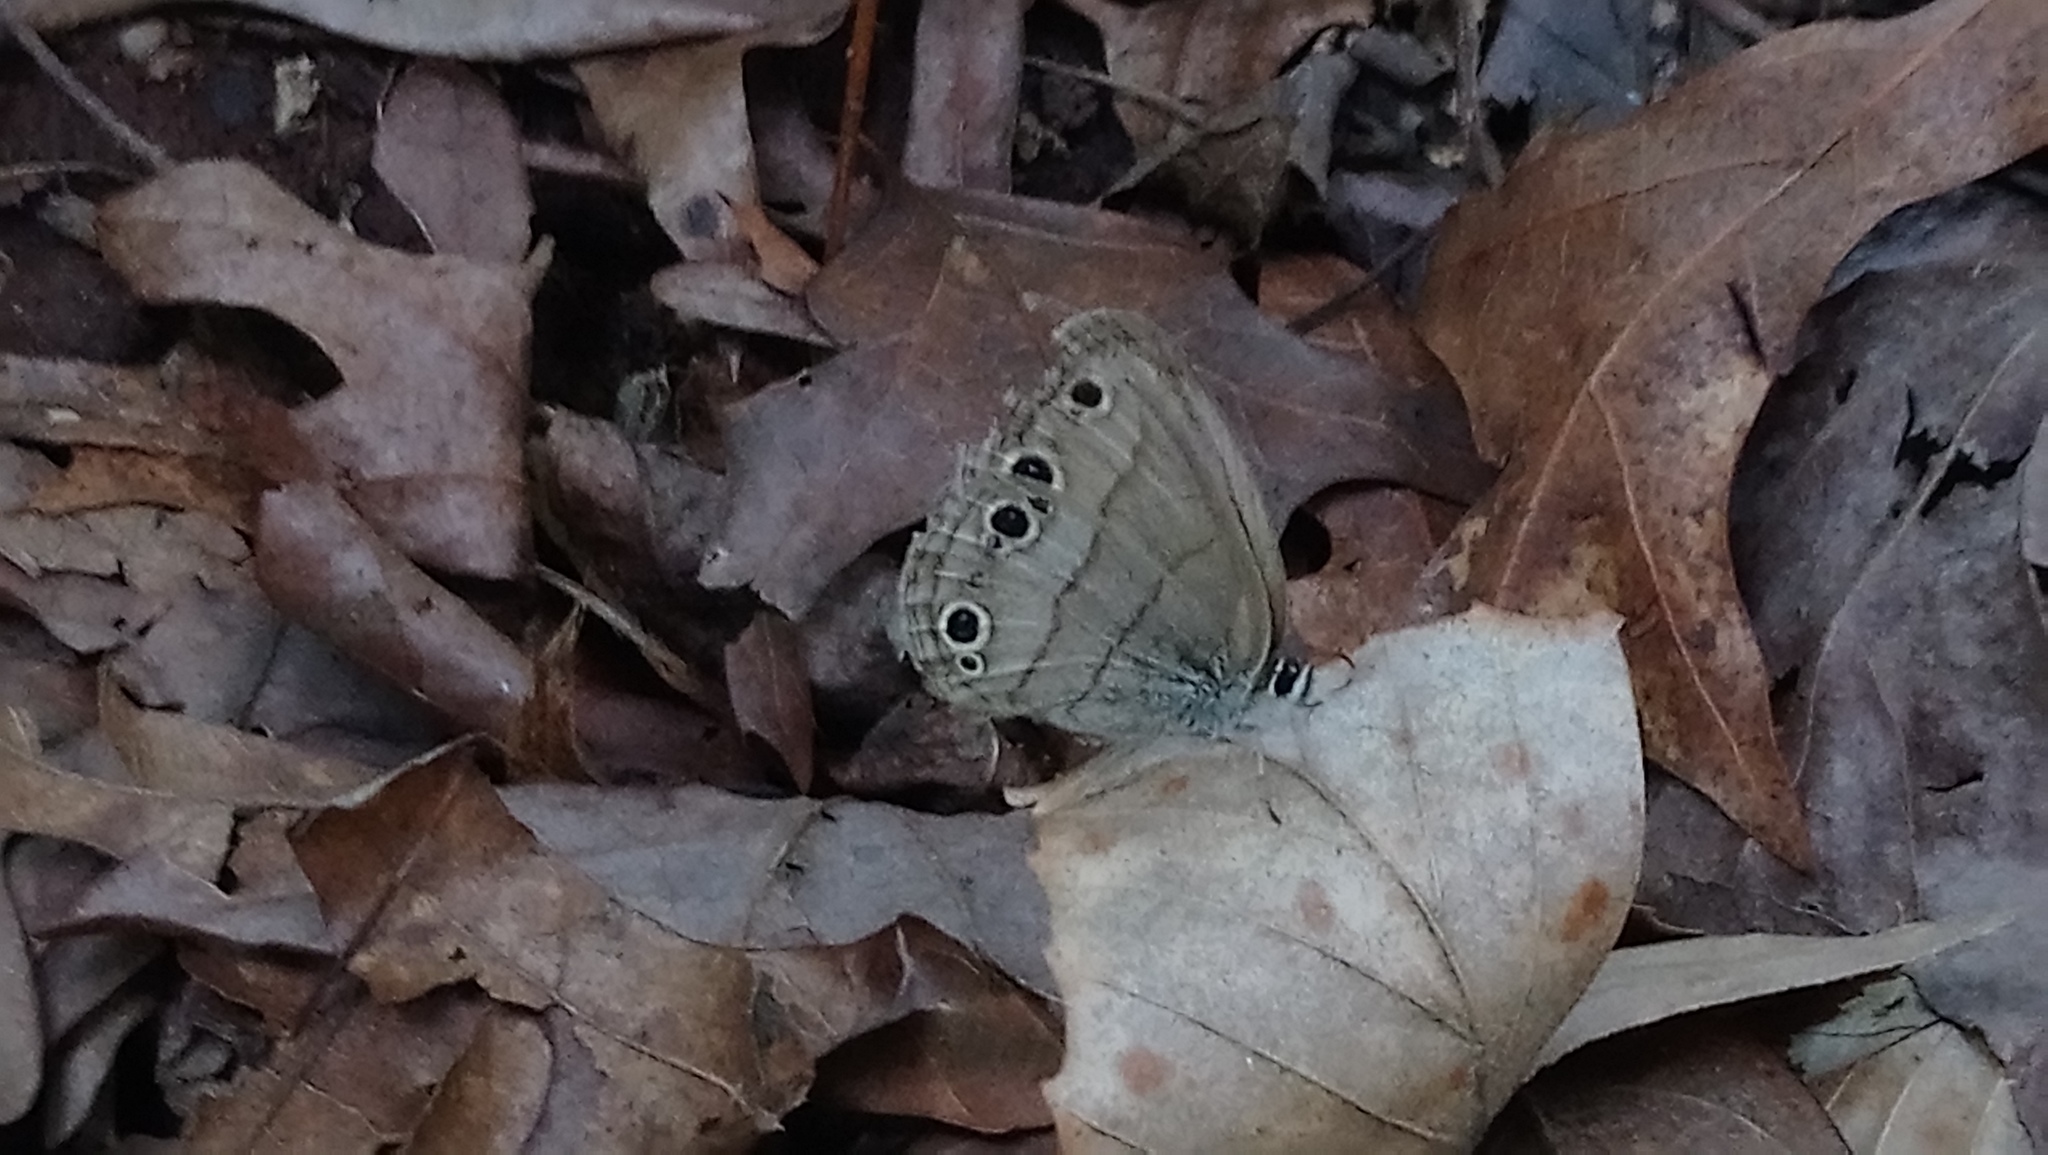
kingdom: Animalia
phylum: Arthropoda
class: Insecta
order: Lepidoptera
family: Nymphalidae
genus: Euptychia
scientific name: Euptychia cymela
